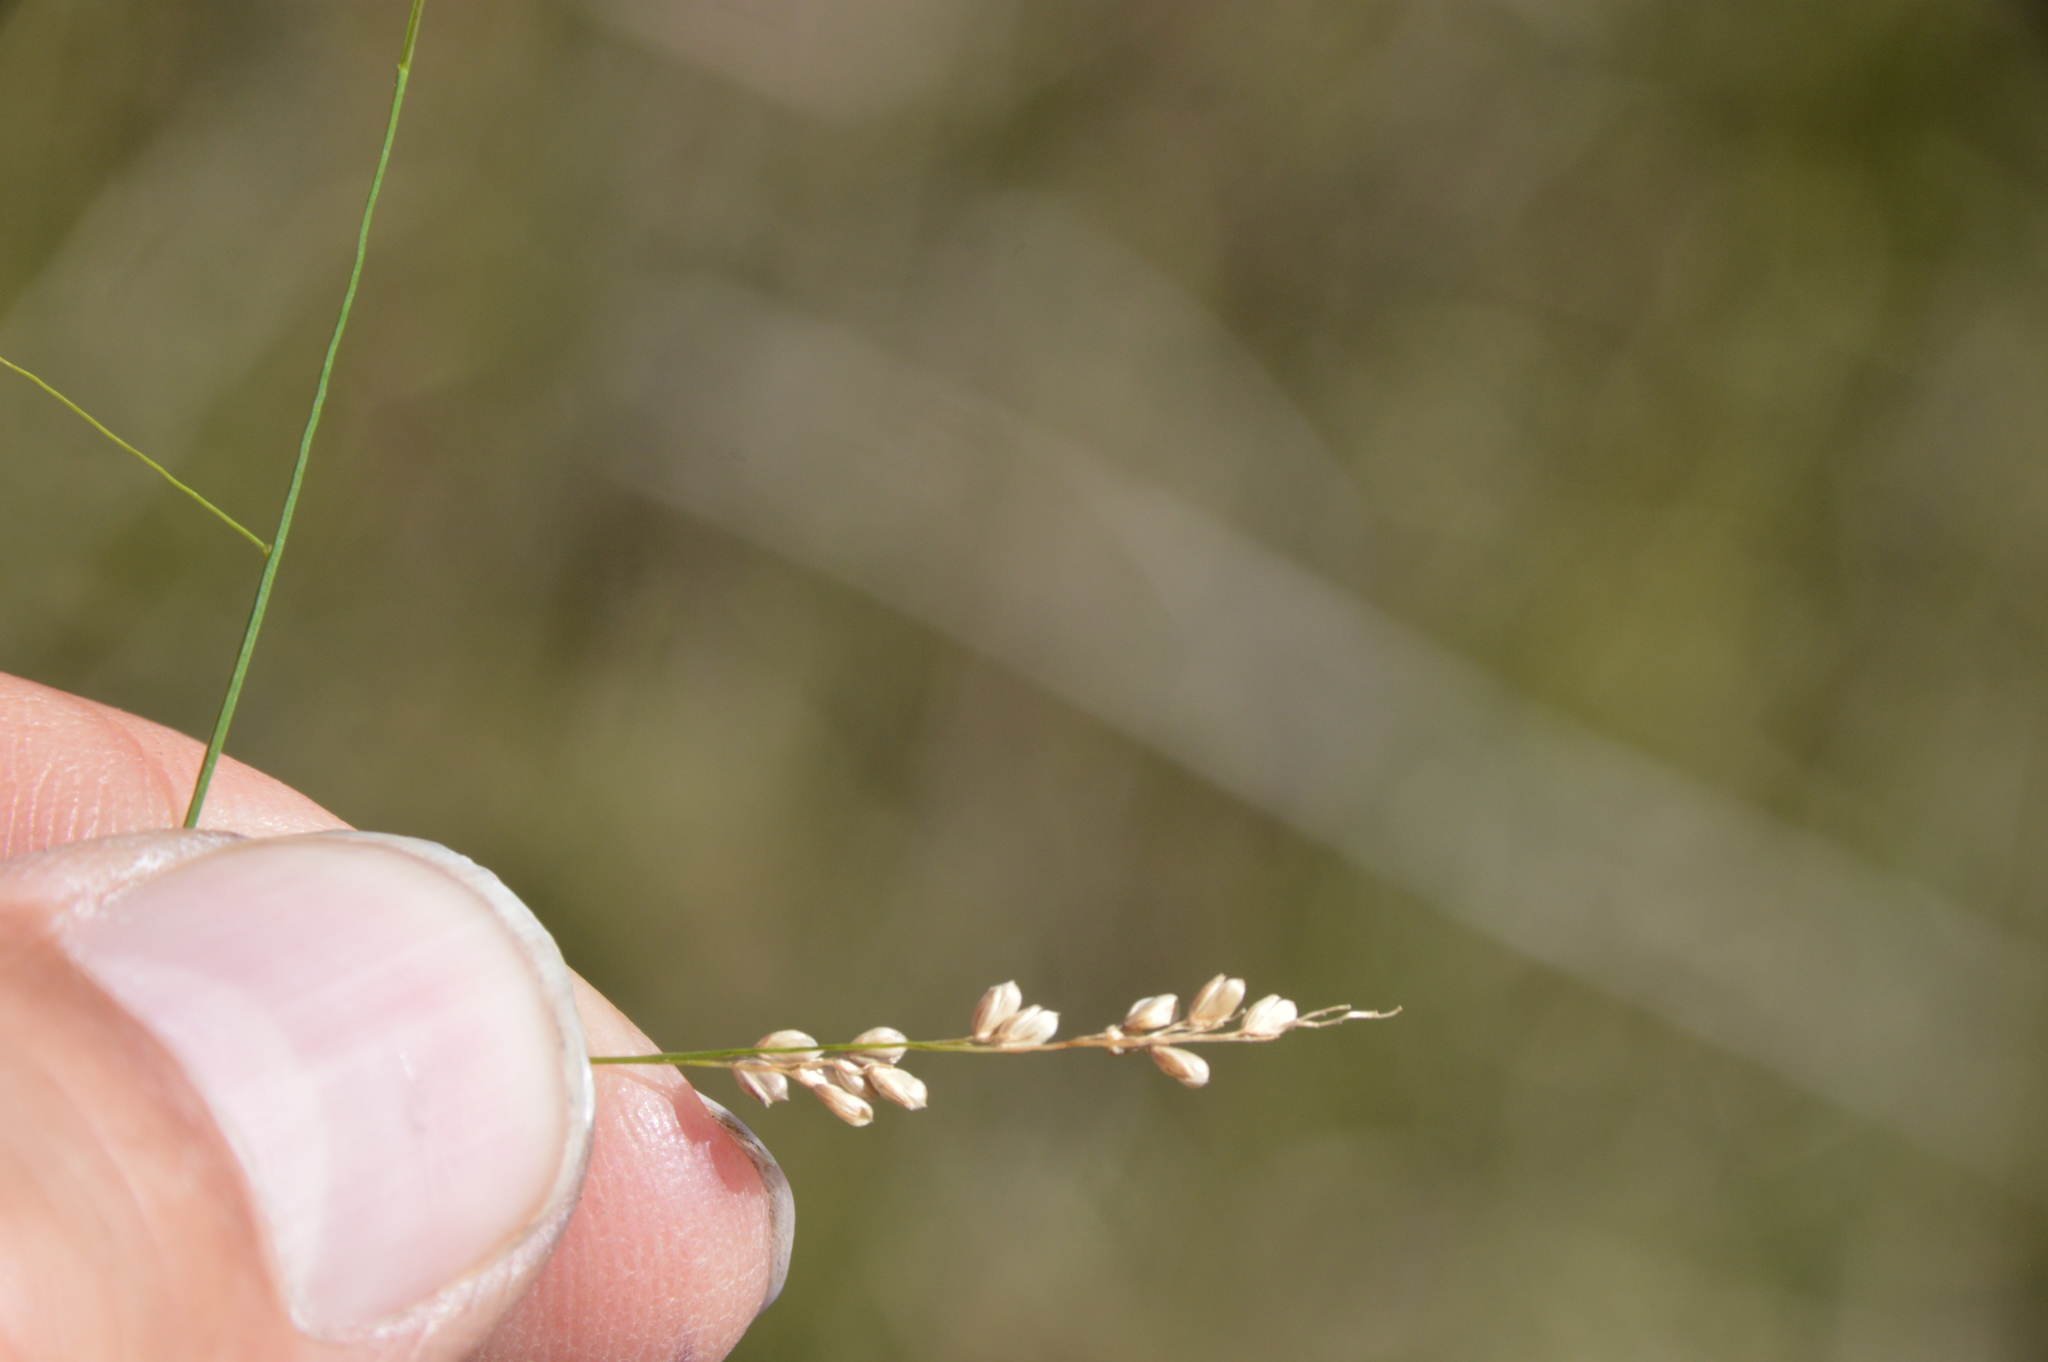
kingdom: Plantae
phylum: Tracheophyta
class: Liliopsida
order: Poales
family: Poaceae
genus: Steinchisma
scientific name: Steinchisma hians
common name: Gaping panic grass
